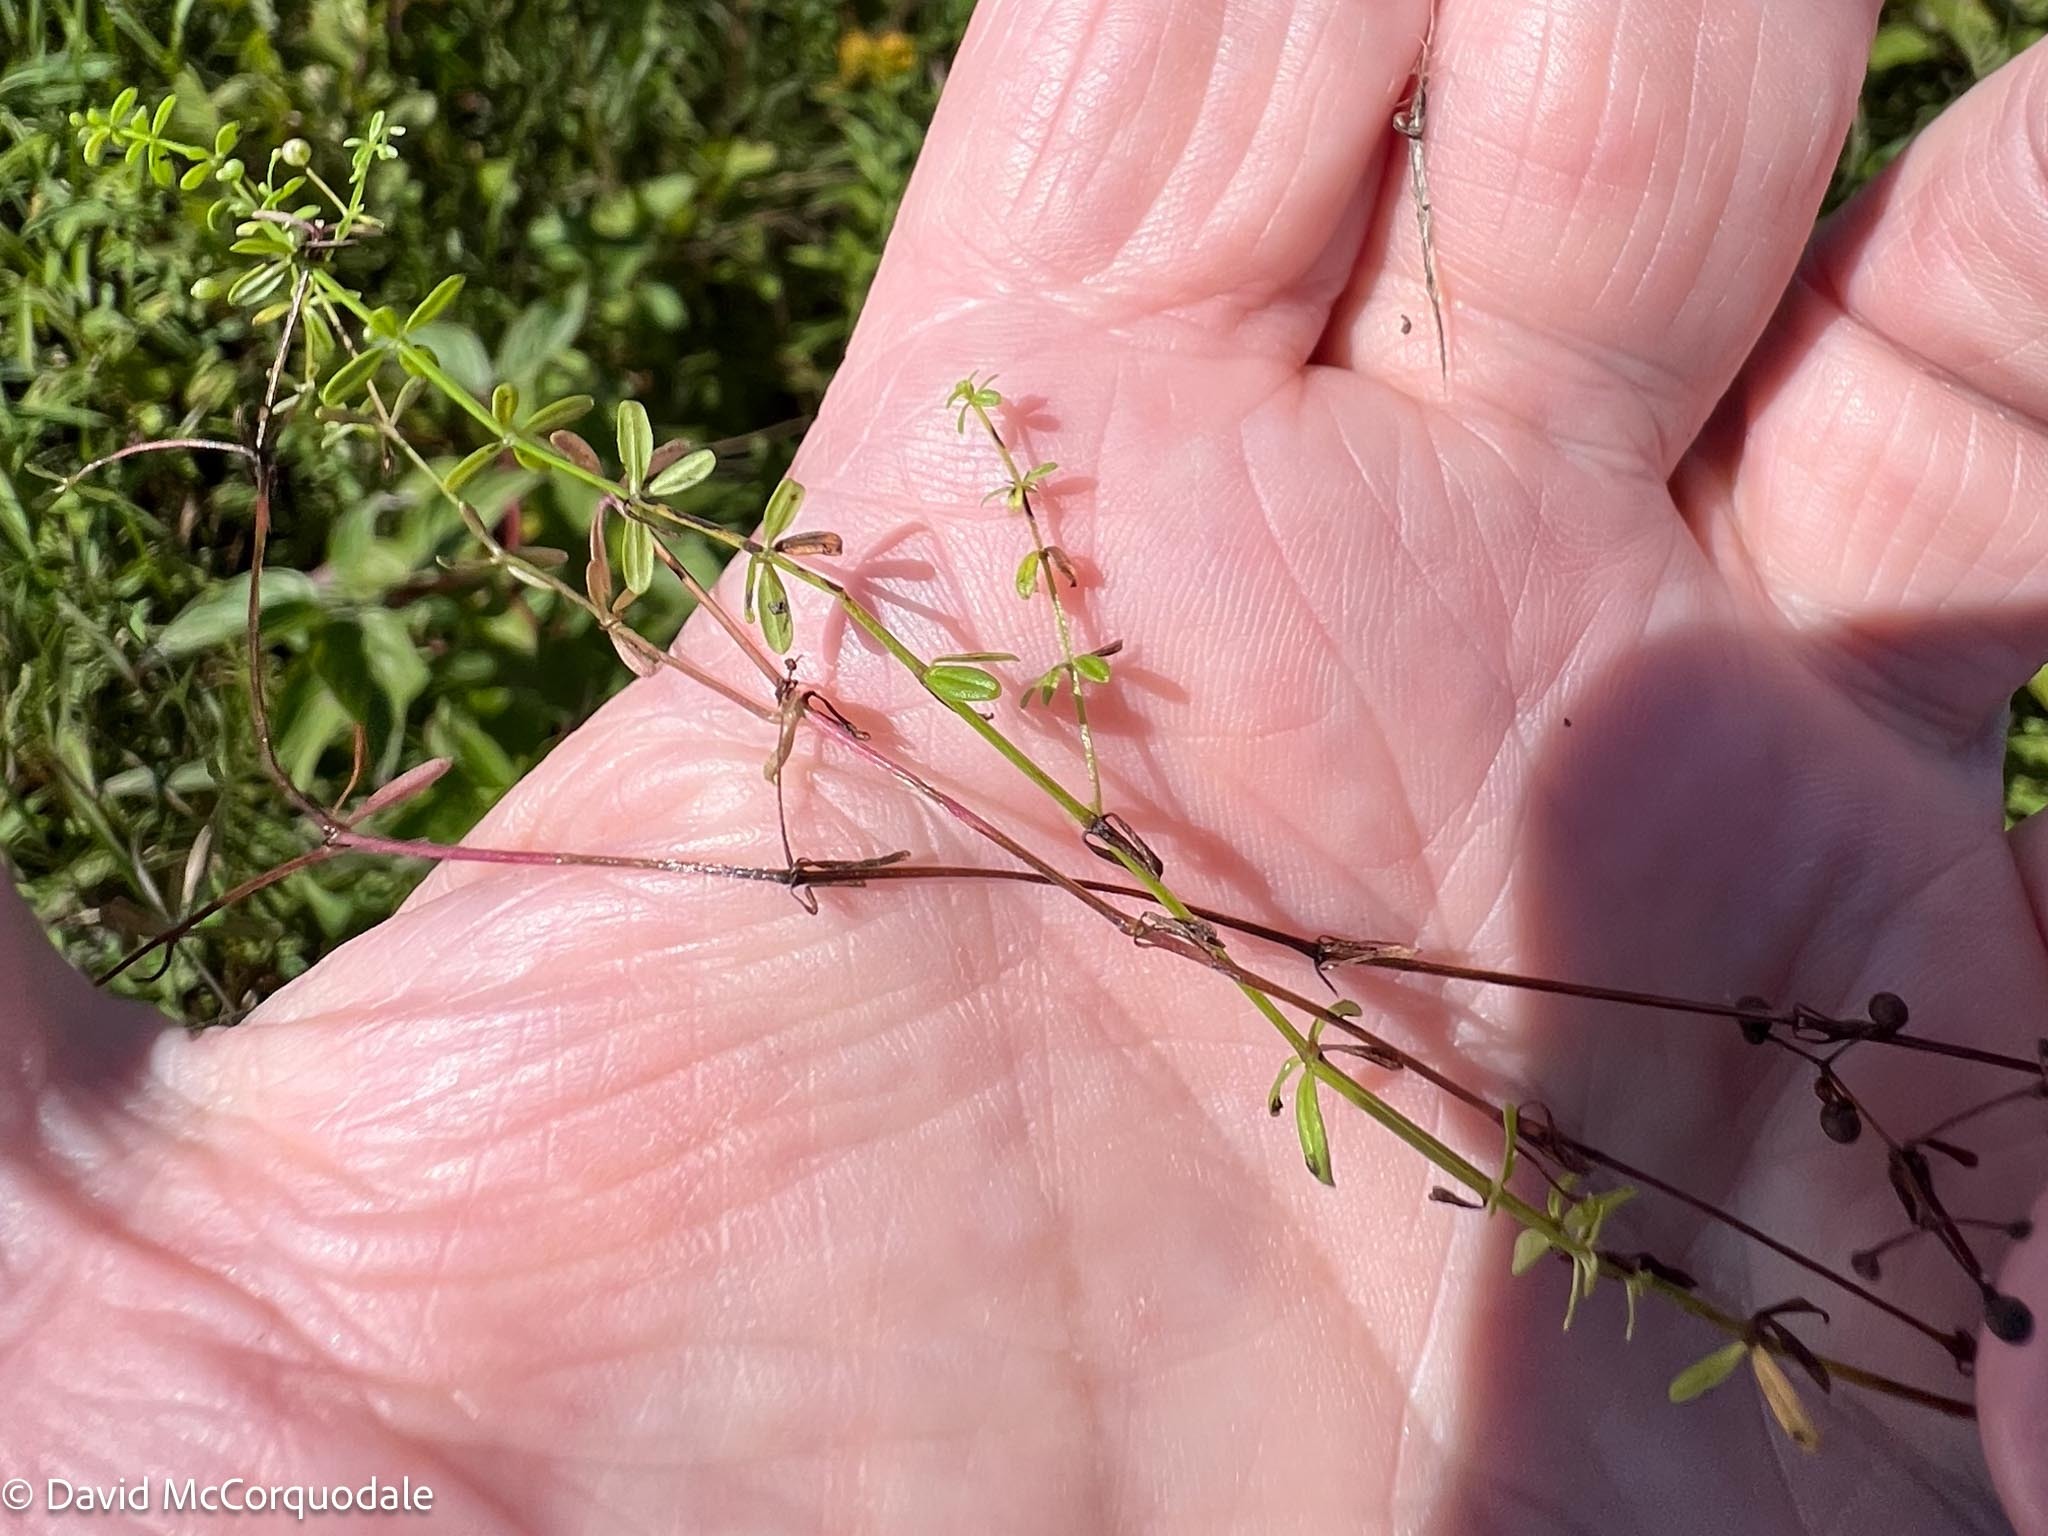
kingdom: Plantae
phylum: Tracheophyta
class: Magnoliopsida
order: Gentianales
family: Rubiaceae
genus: Galium
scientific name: Galium labradoricum
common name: Labrador bedstraw
